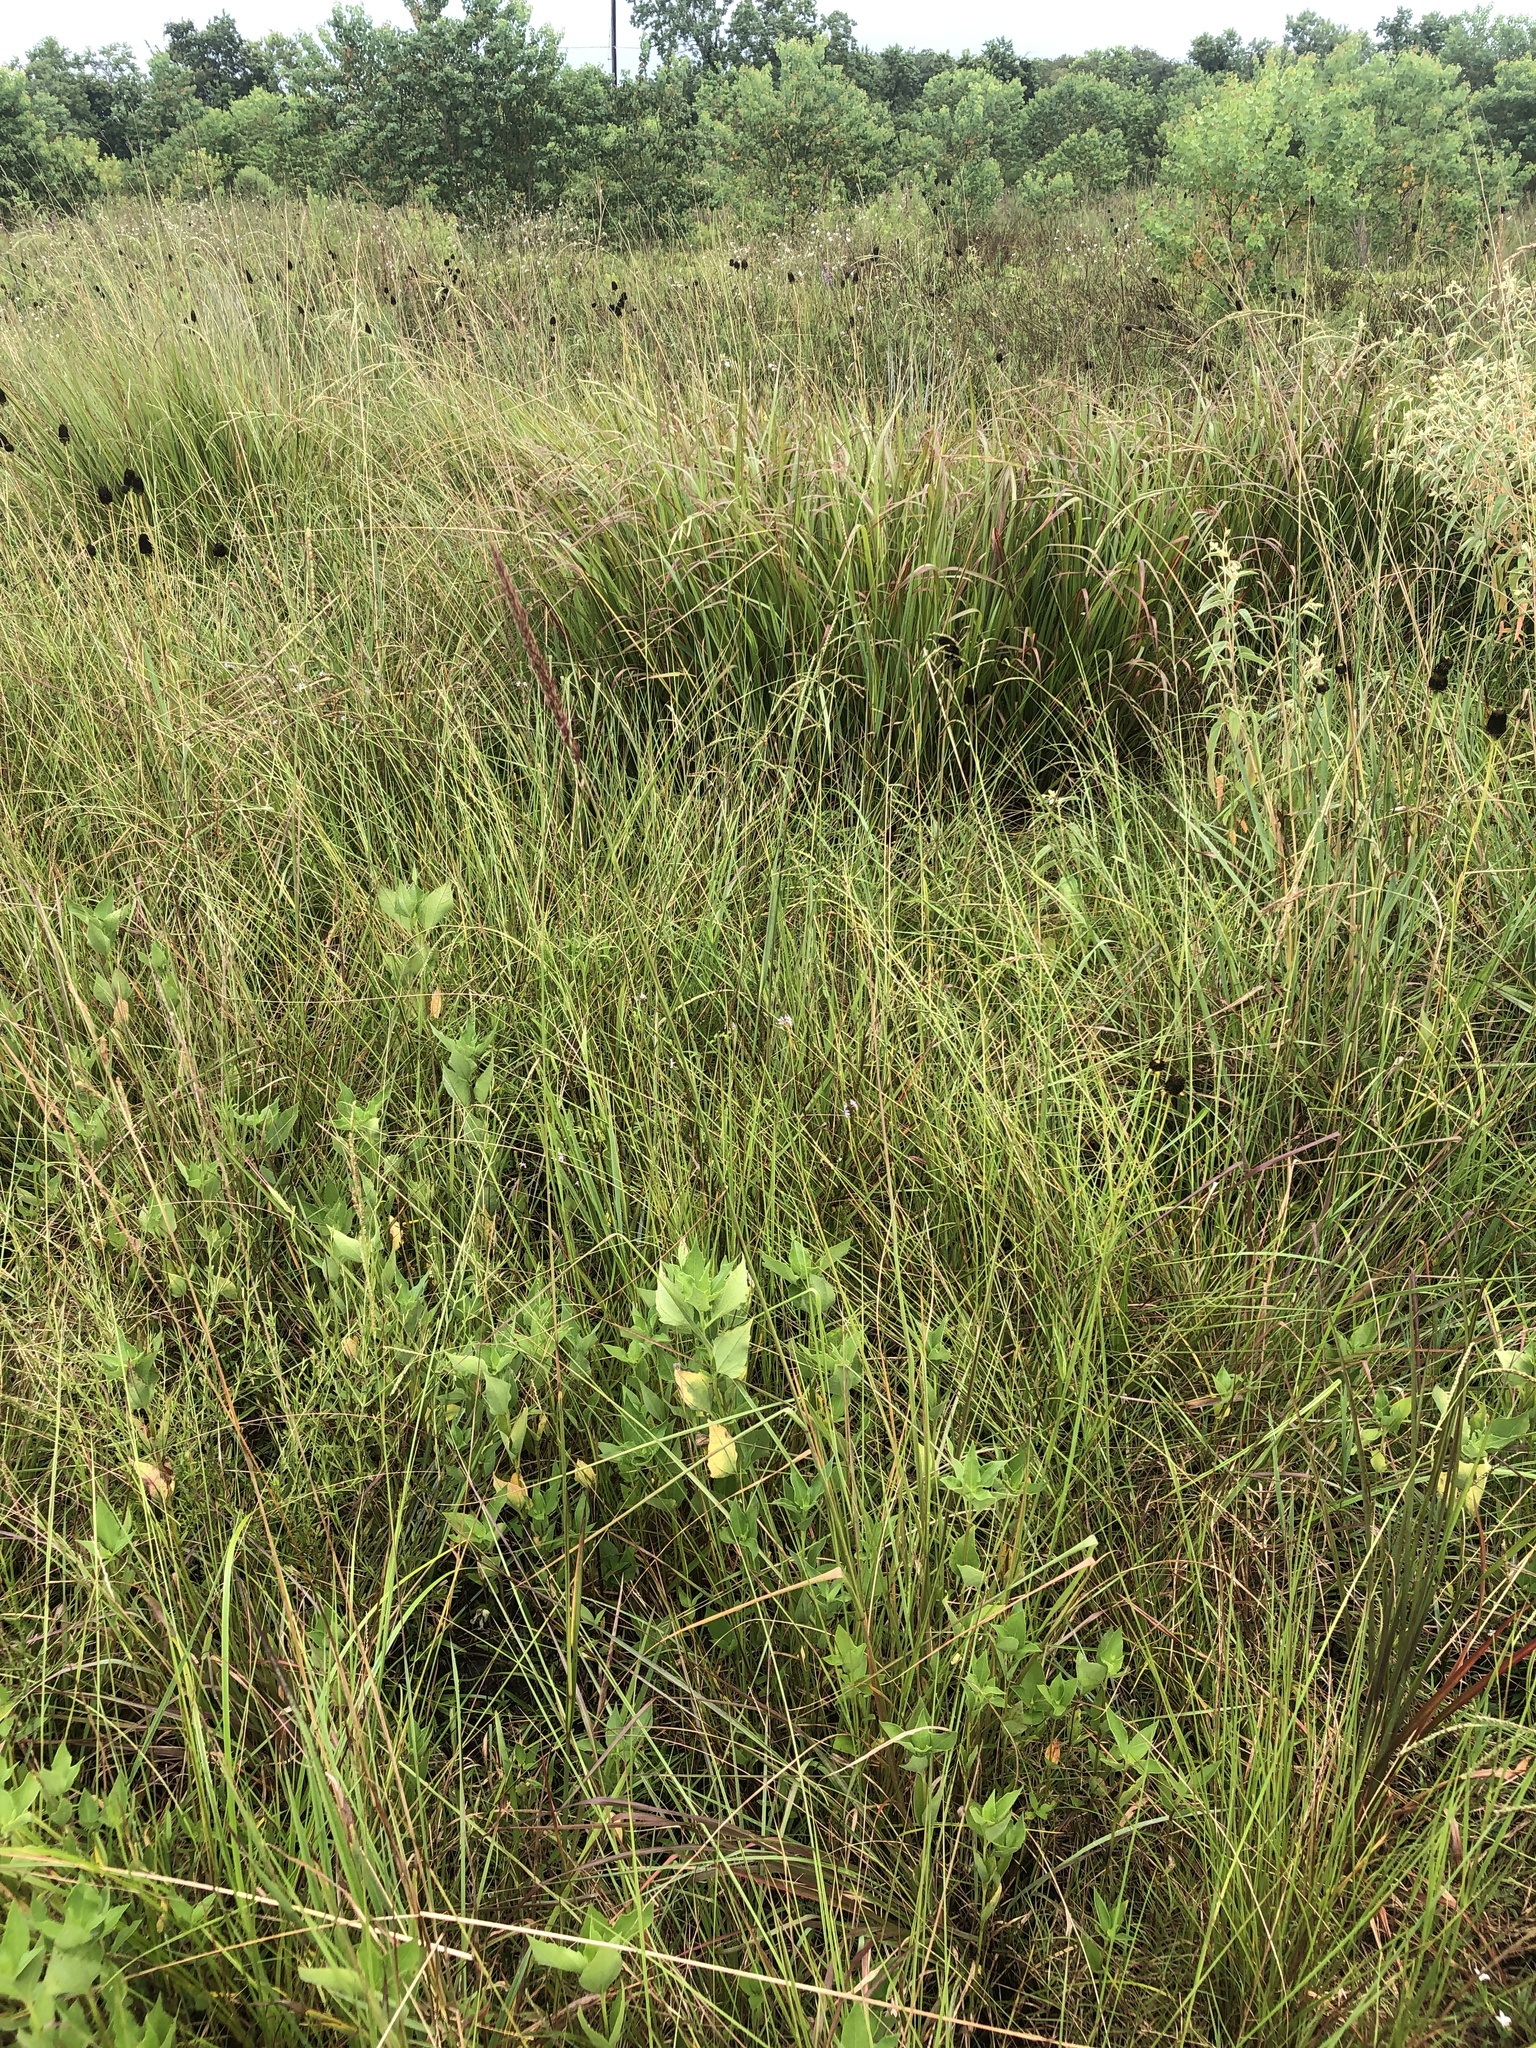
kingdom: Plantae
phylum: Tracheophyta
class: Liliopsida
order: Poales
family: Poaceae
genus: Tridens
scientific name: Tridens strictus
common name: Long-spike tridens
